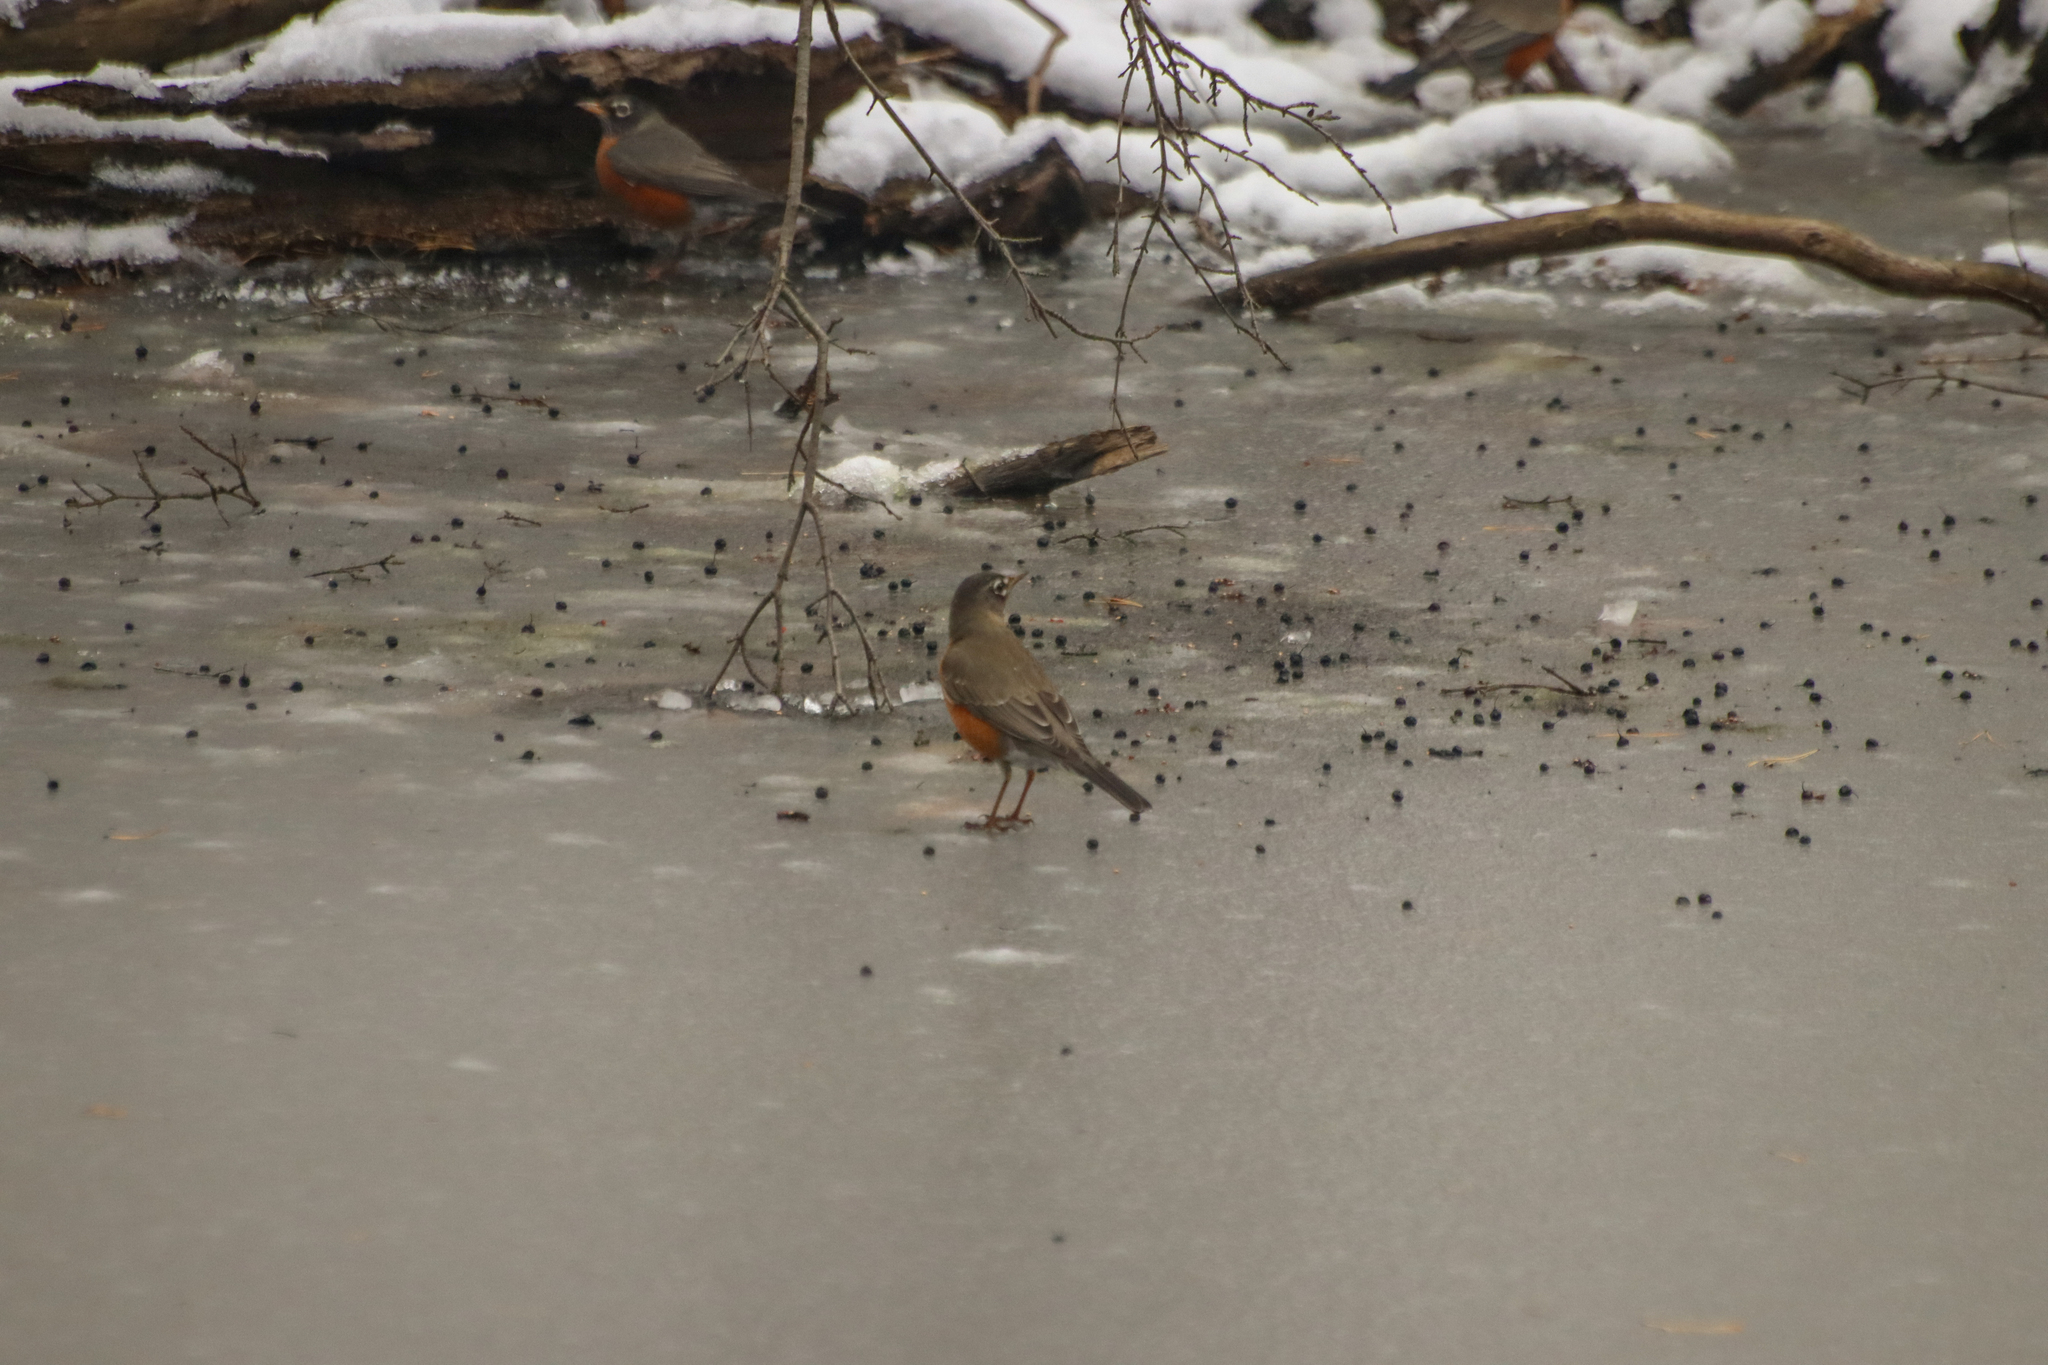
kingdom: Animalia
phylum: Chordata
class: Aves
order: Passeriformes
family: Turdidae
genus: Turdus
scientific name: Turdus migratorius
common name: American robin
